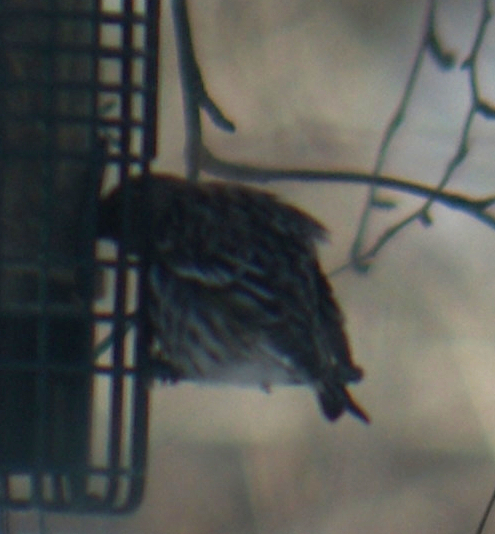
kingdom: Animalia
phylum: Chordata
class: Aves
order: Passeriformes
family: Fringillidae
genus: Spinus
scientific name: Spinus pinus
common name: Pine siskin
